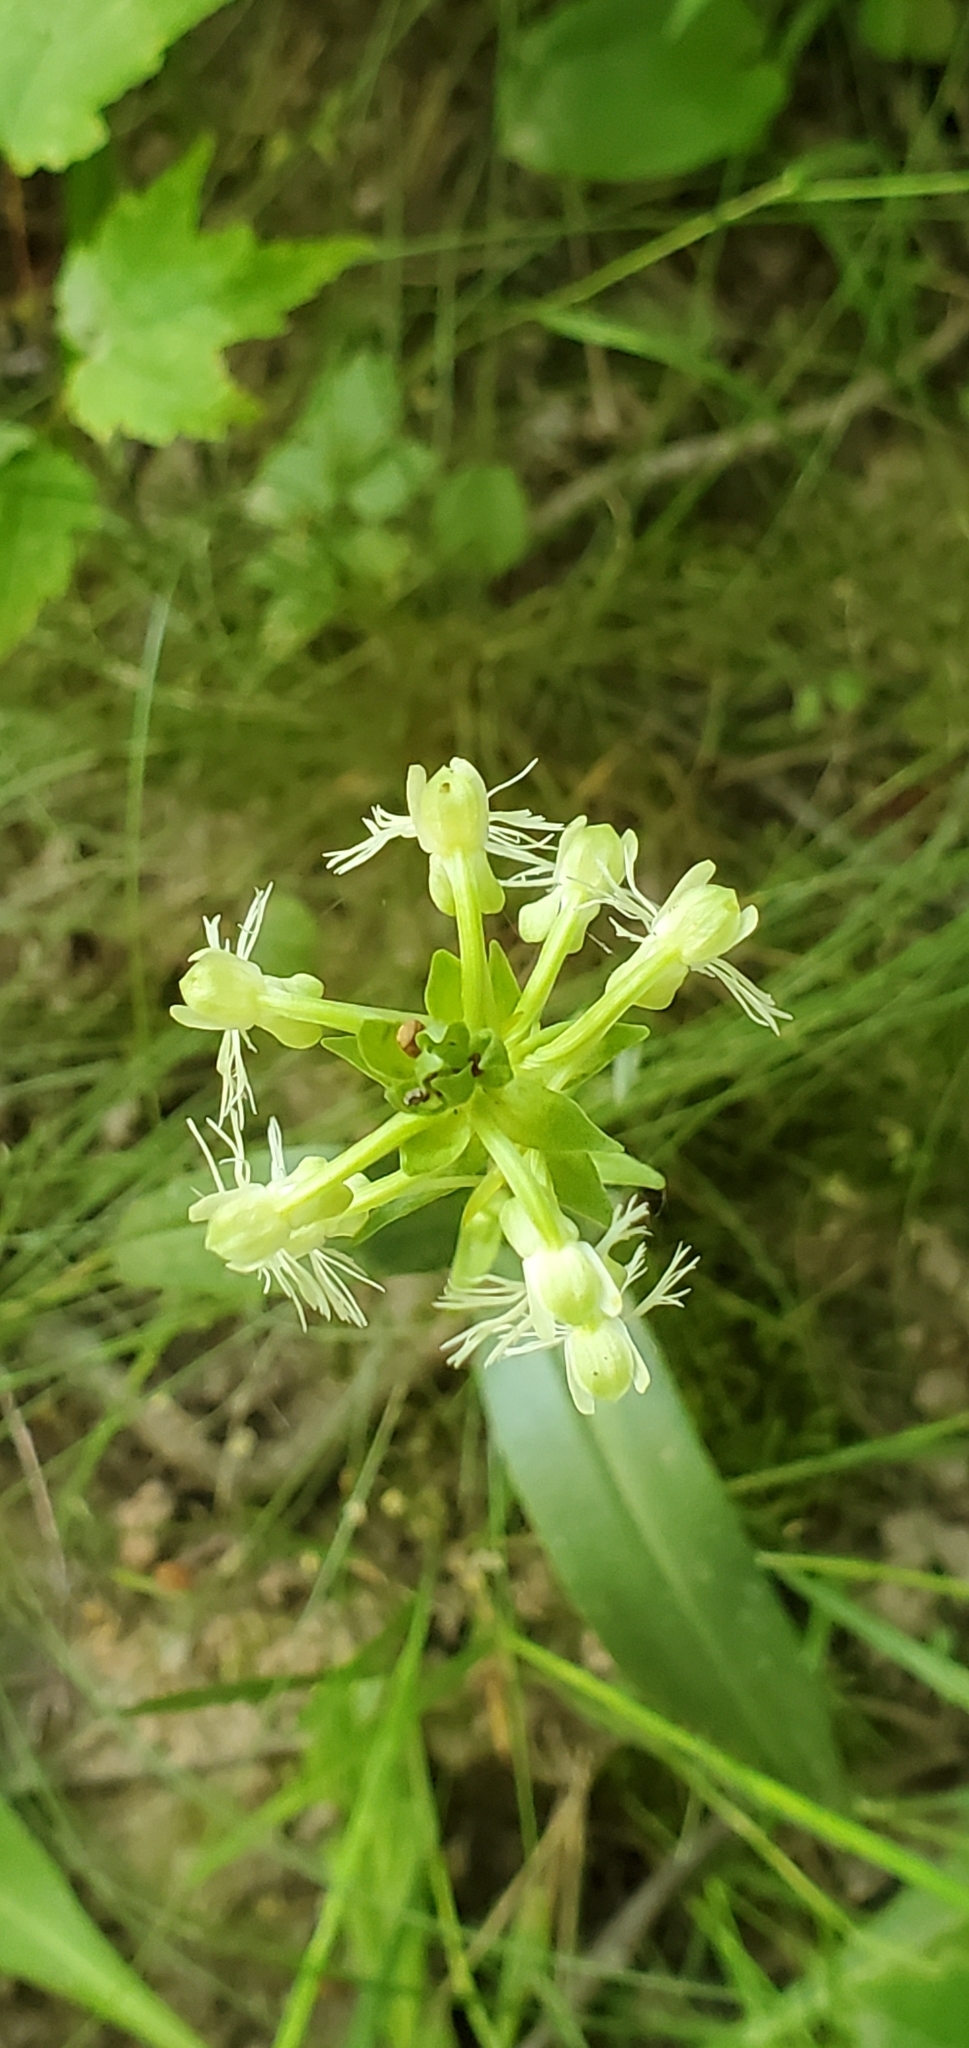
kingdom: Plantae
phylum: Tracheophyta
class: Liliopsida
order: Asparagales
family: Orchidaceae
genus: Platanthera
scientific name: Platanthera lacera
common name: Green fringed orchid
